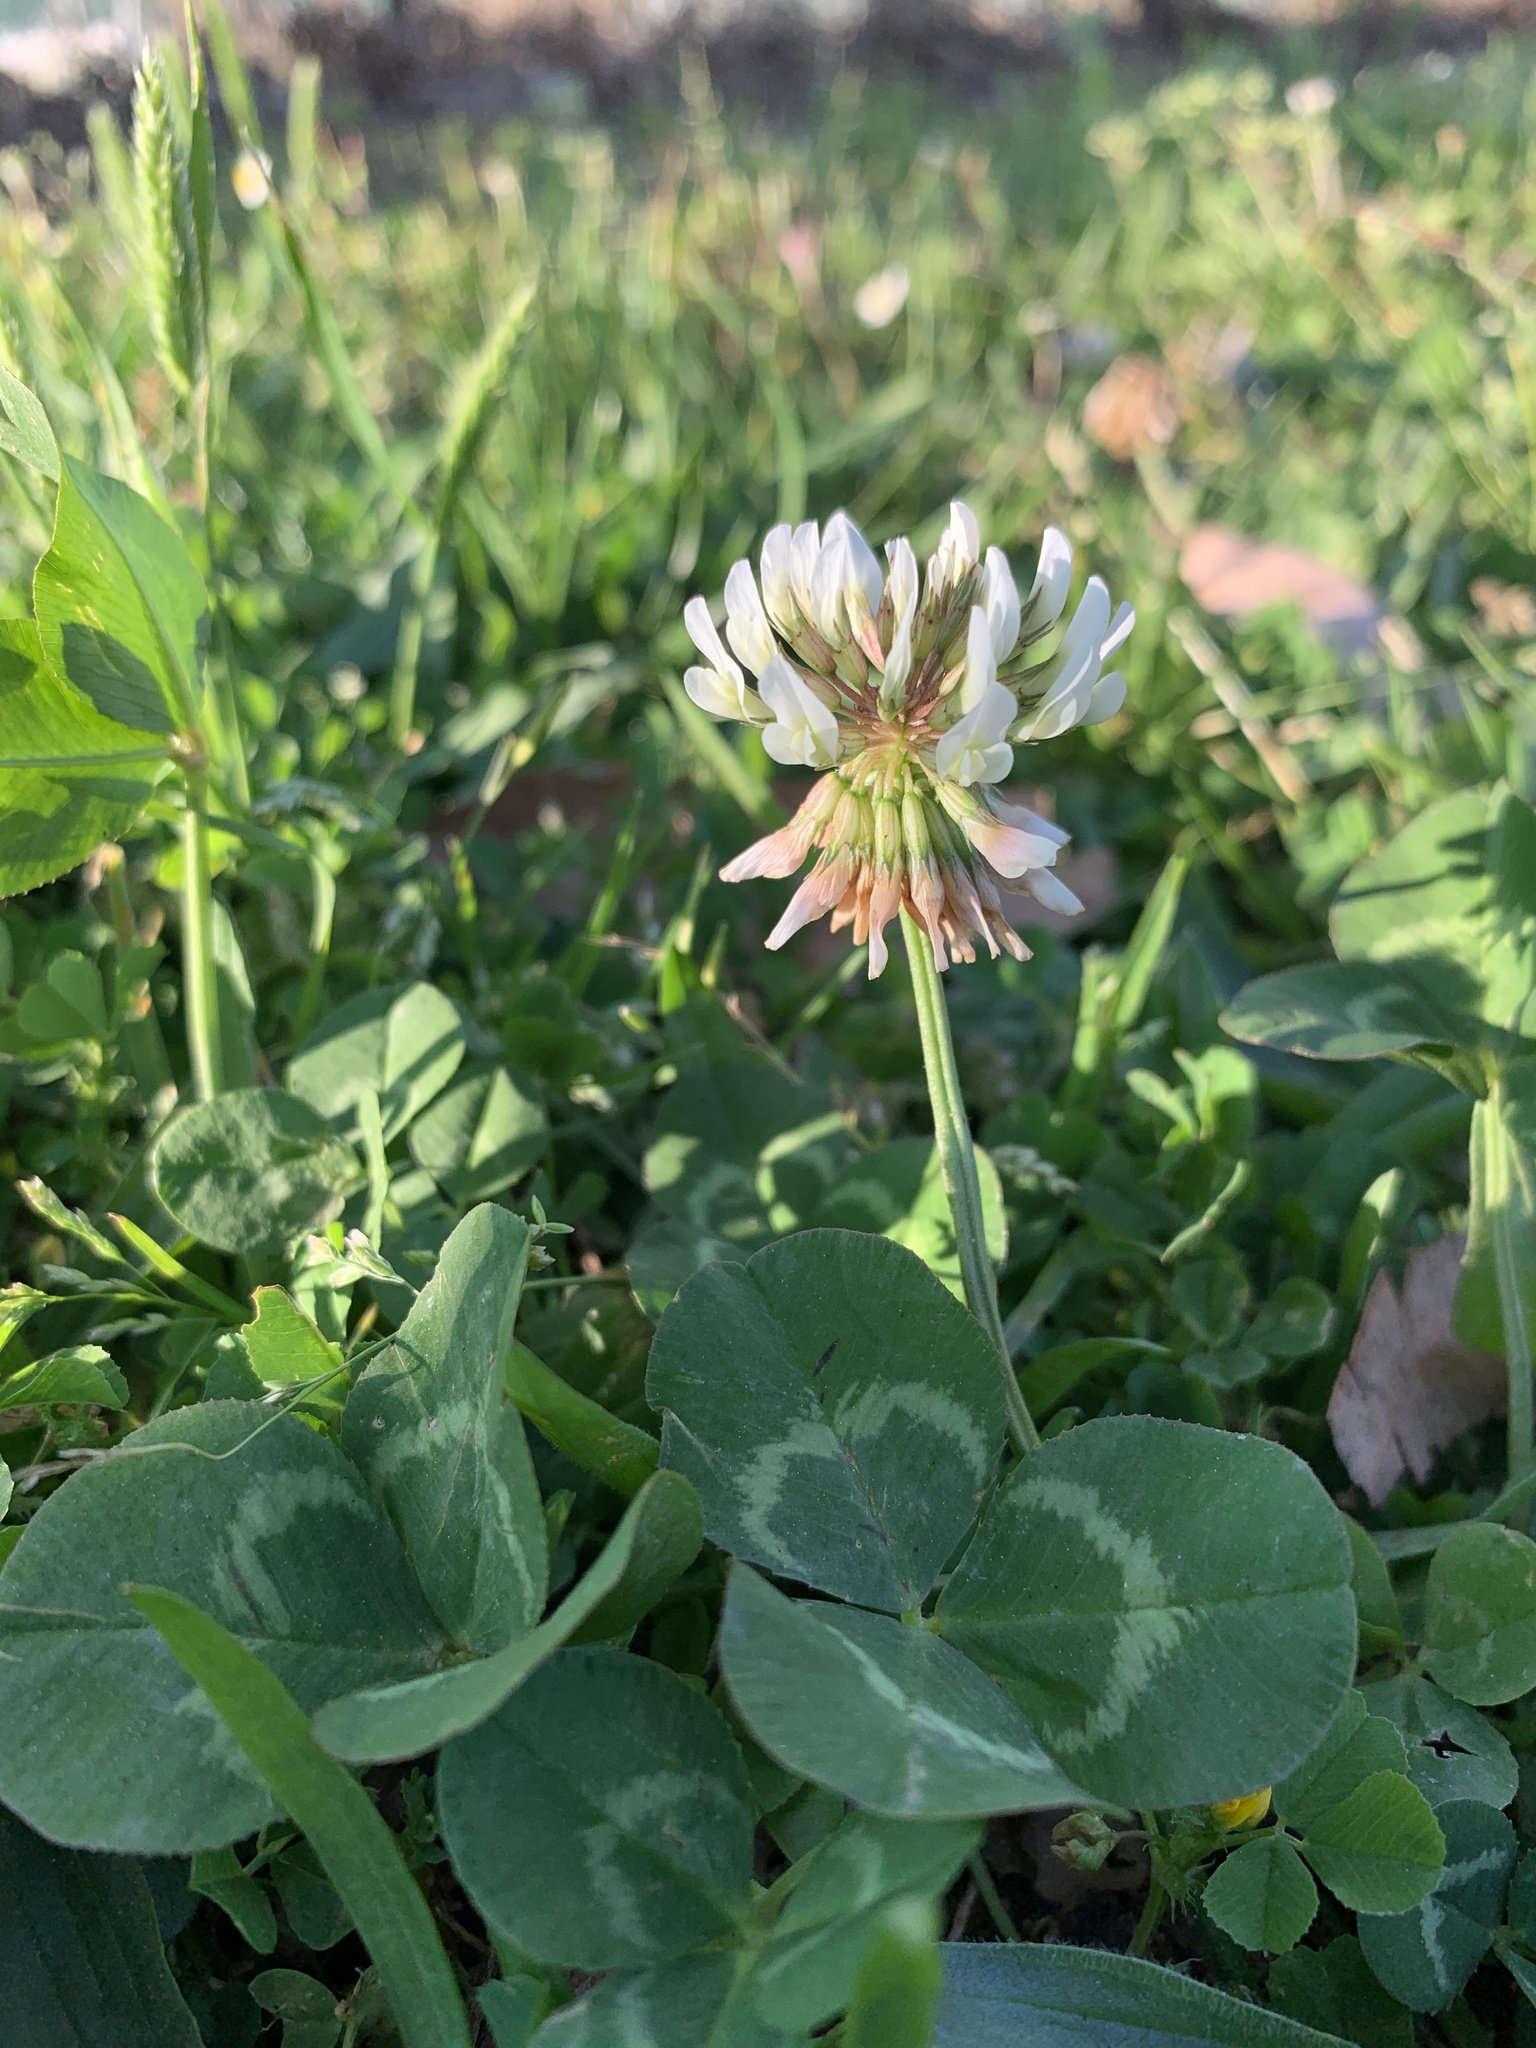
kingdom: Plantae
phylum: Tracheophyta
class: Magnoliopsida
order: Fabales
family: Fabaceae
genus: Trifolium
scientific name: Trifolium repens
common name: White clover
